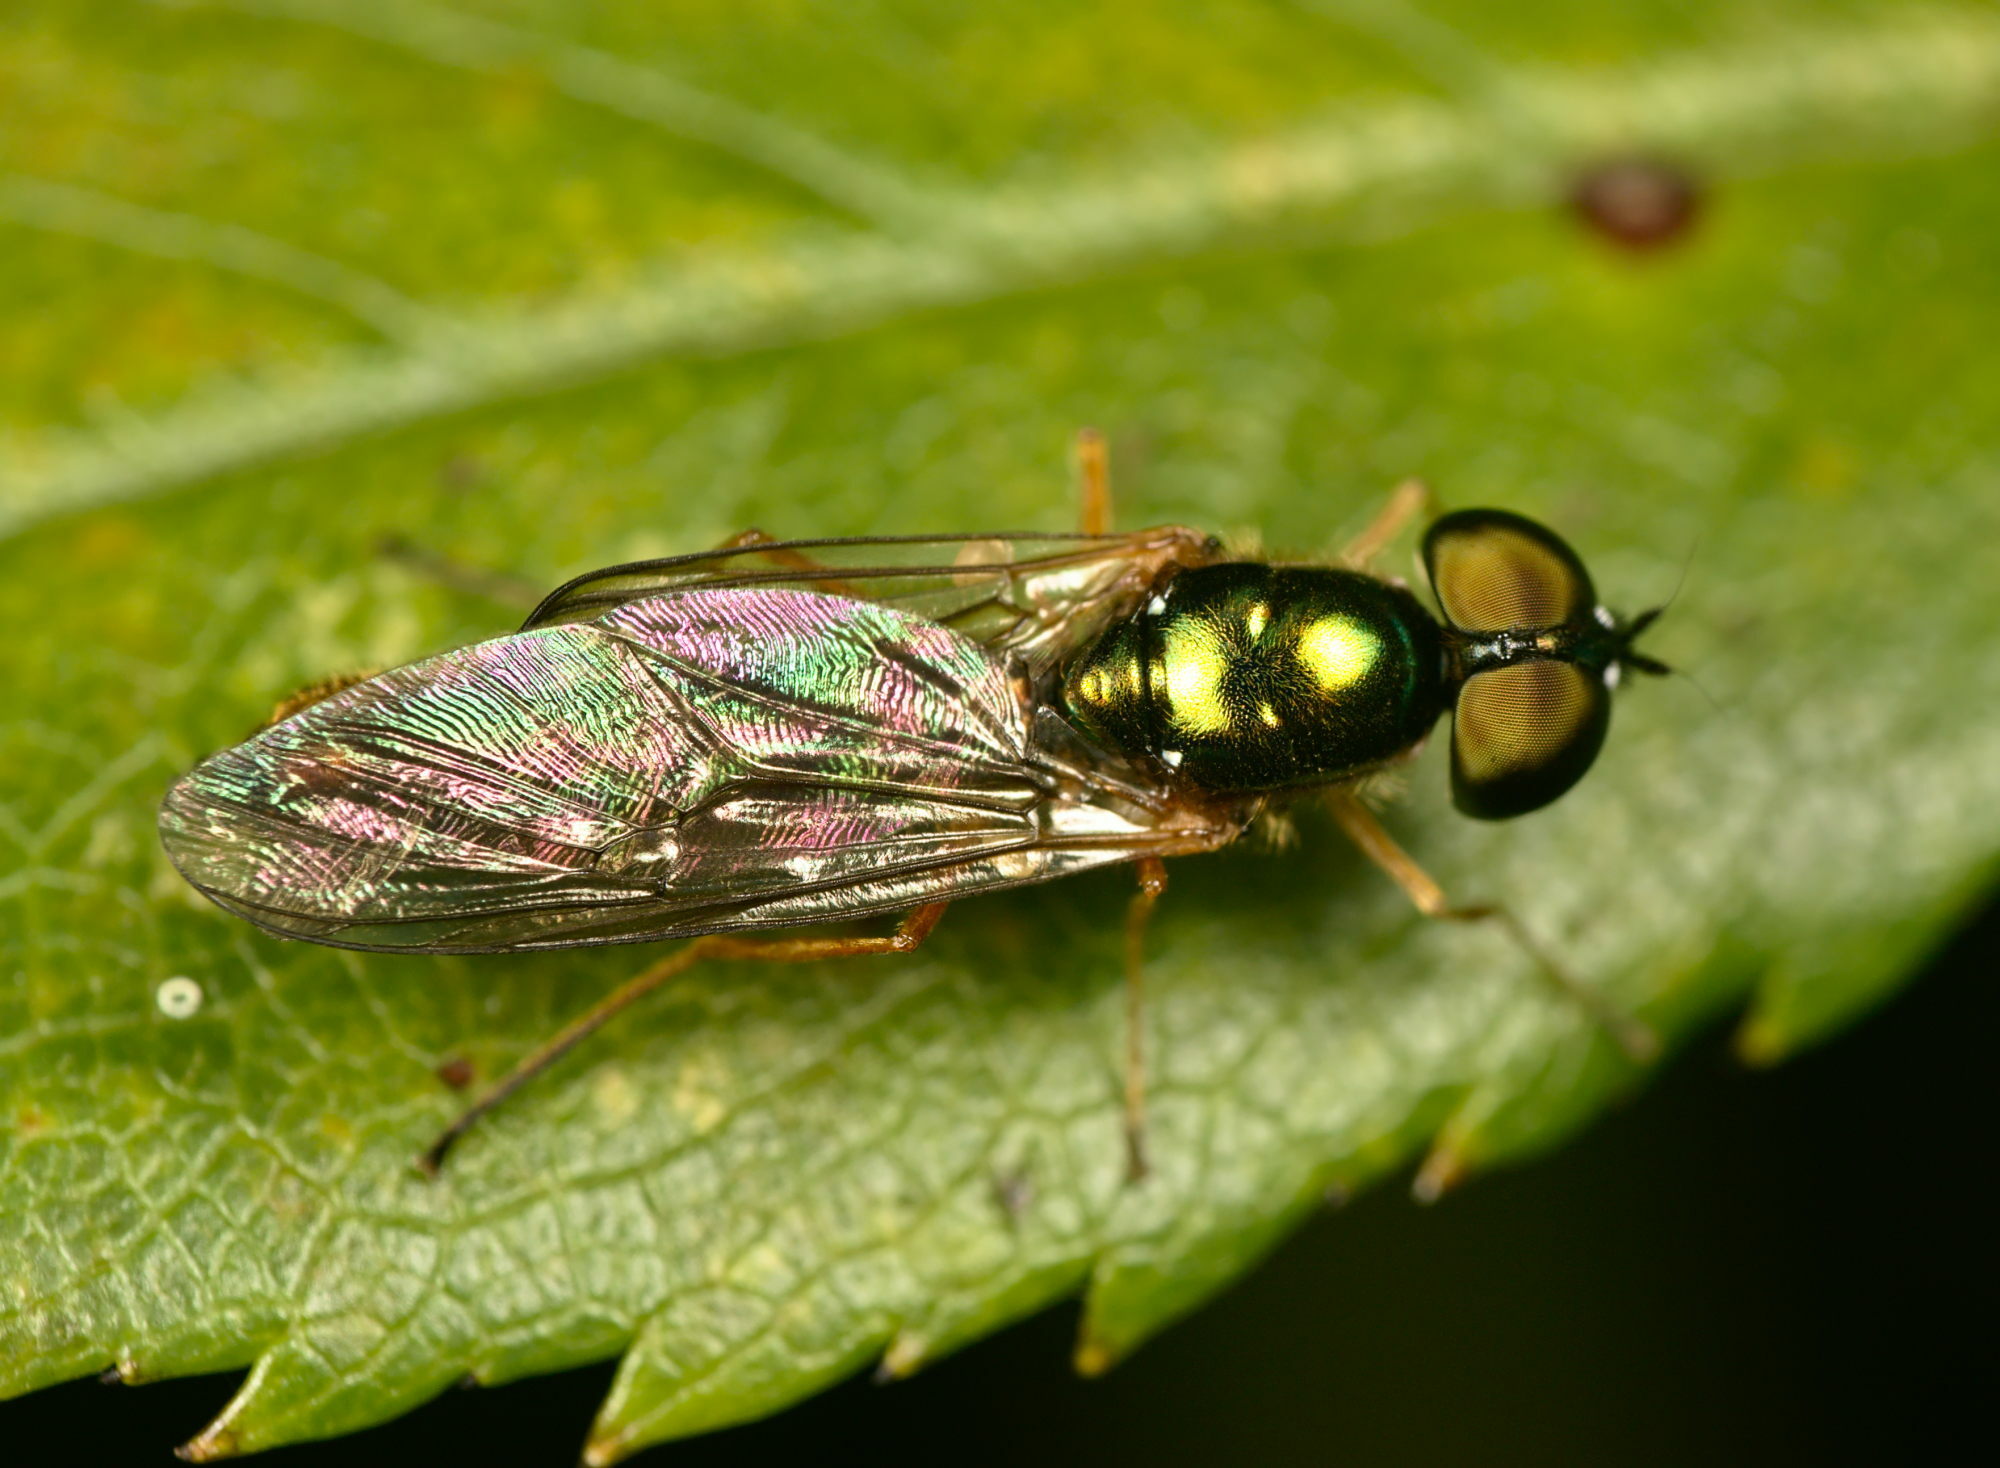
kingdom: Animalia
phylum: Arthropoda
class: Insecta
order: Diptera
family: Stratiomyidae
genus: Sargus
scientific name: Sargus bipunctatus
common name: Twin-spot centurion
